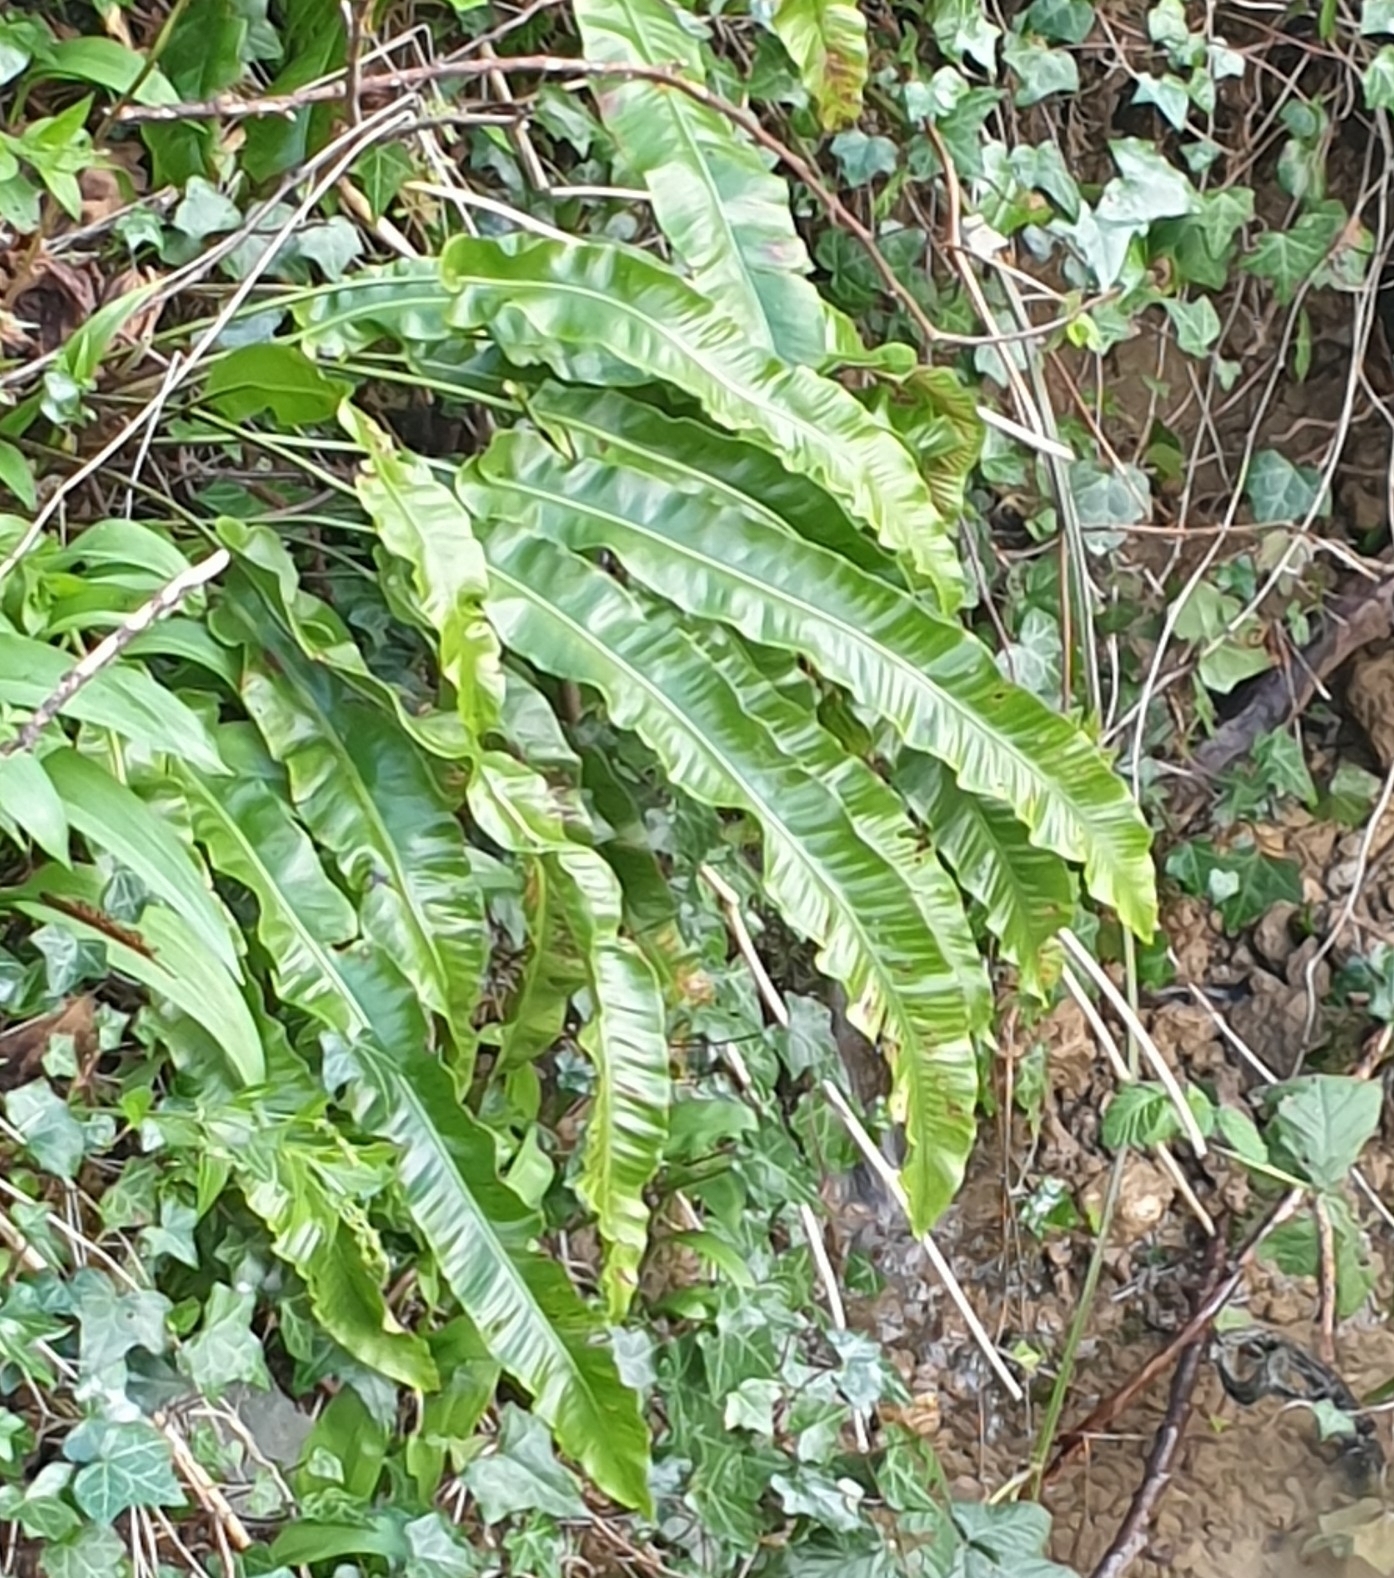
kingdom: Plantae
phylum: Tracheophyta
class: Polypodiopsida
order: Polypodiales
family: Aspleniaceae
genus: Asplenium
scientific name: Asplenium scolopendrium
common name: Hart's-tongue fern
